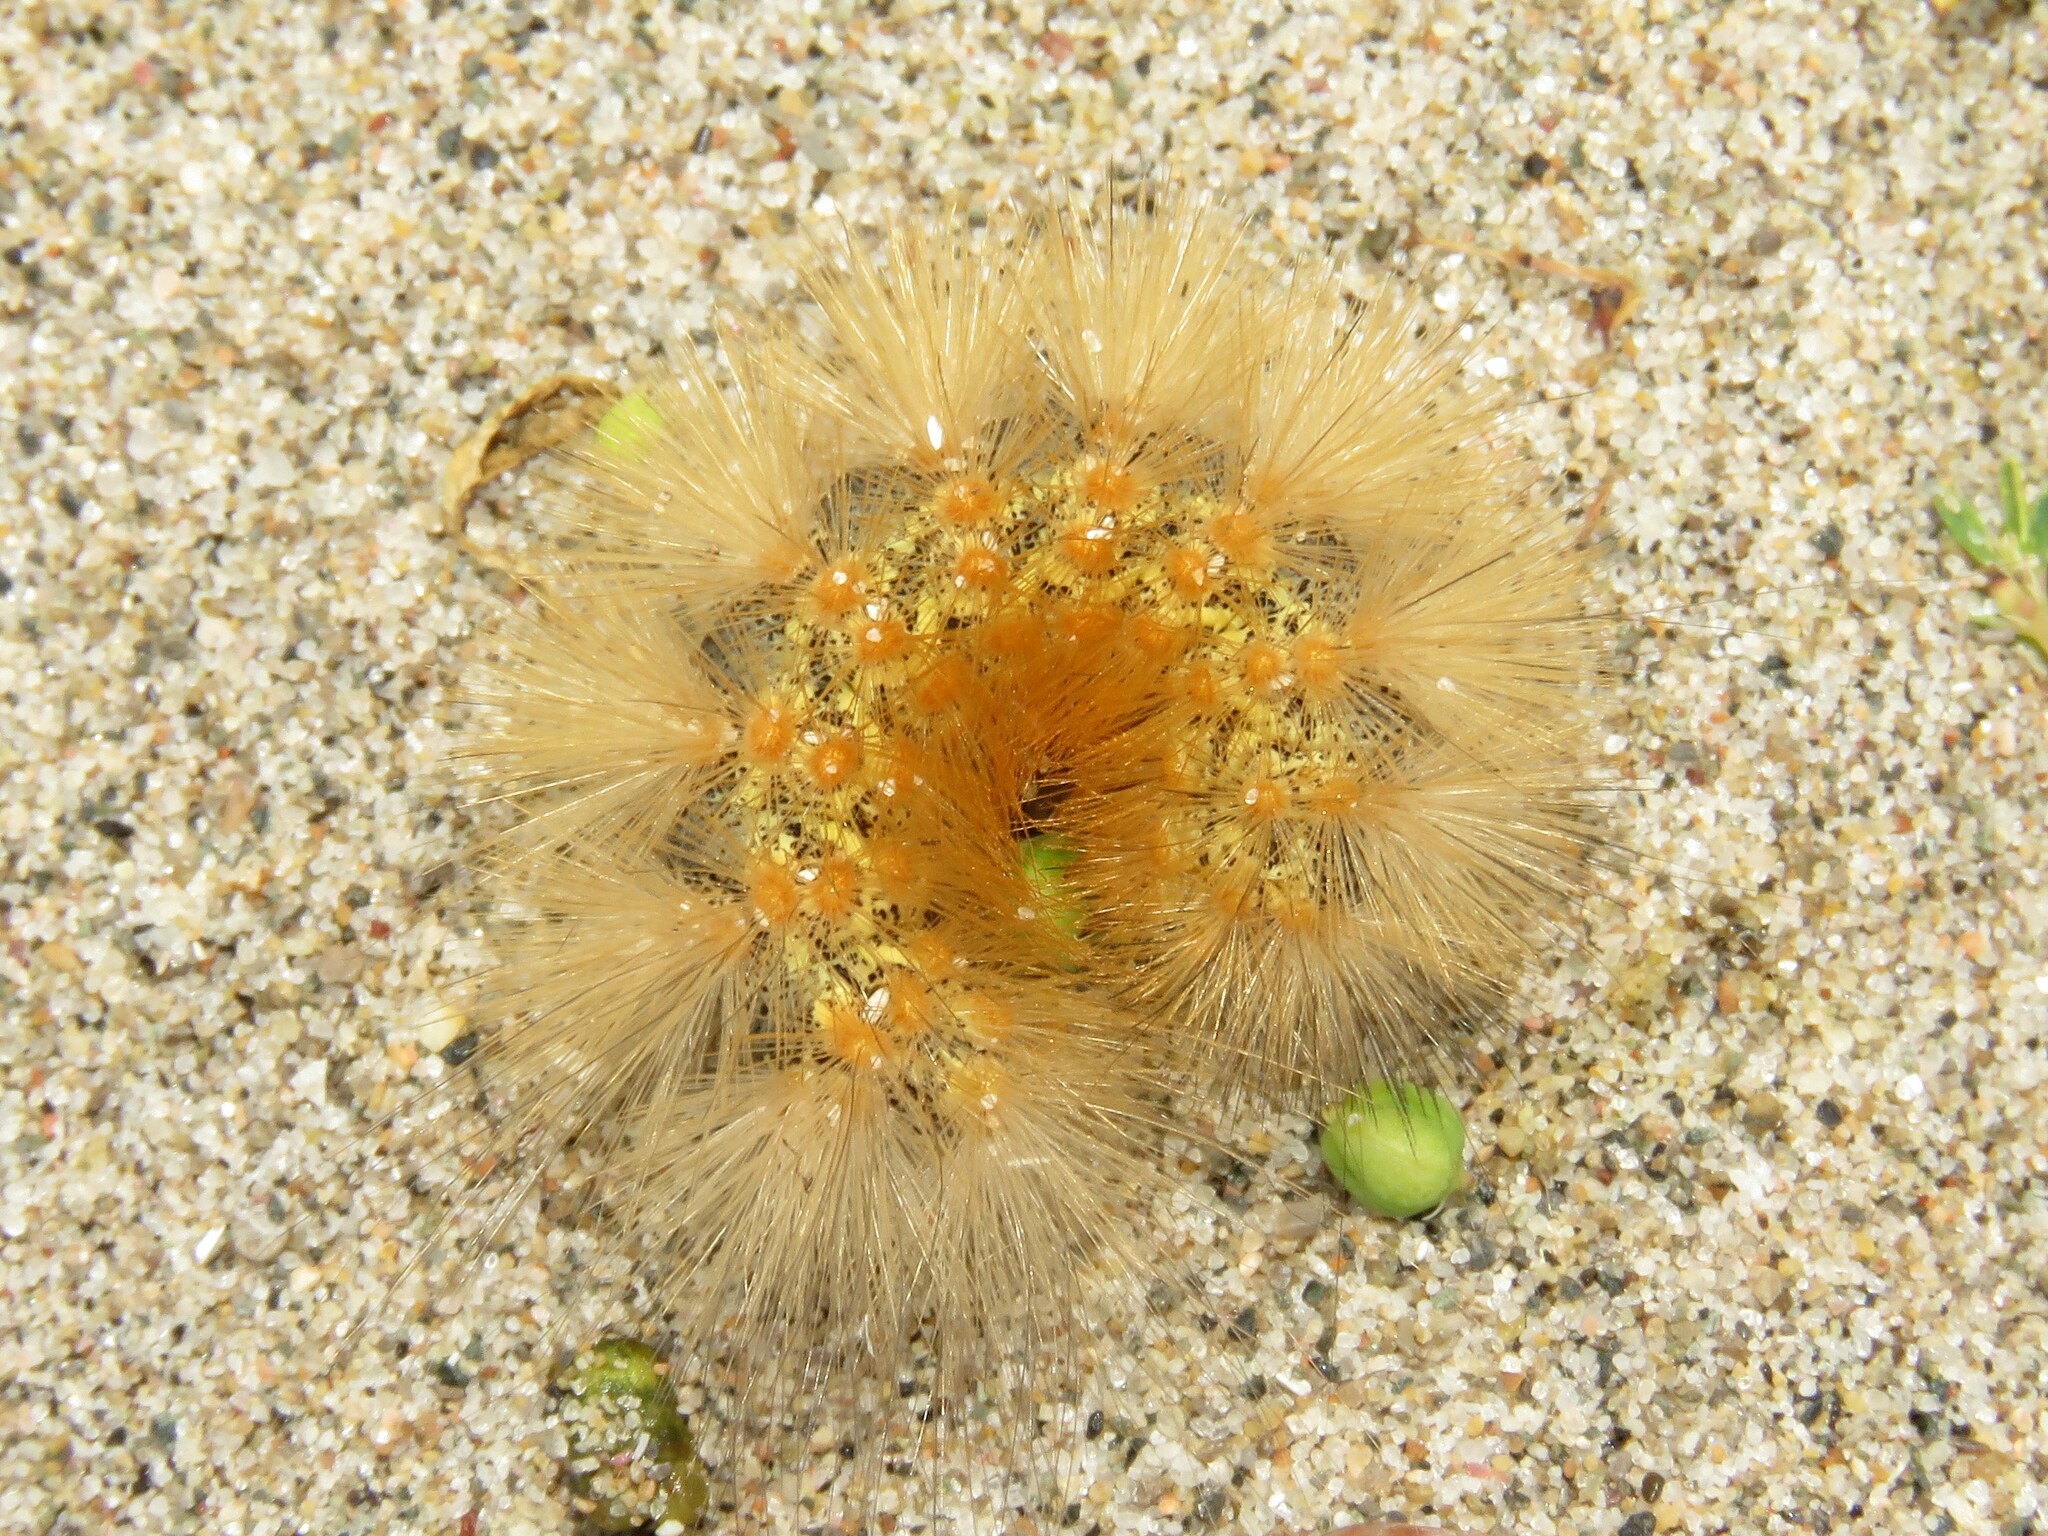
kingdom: Animalia
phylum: Arthropoda
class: Insecta
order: Lepidoptera
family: Erebidae
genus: Estigmene
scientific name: Estigmene acrea
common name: Salt marsh moth
